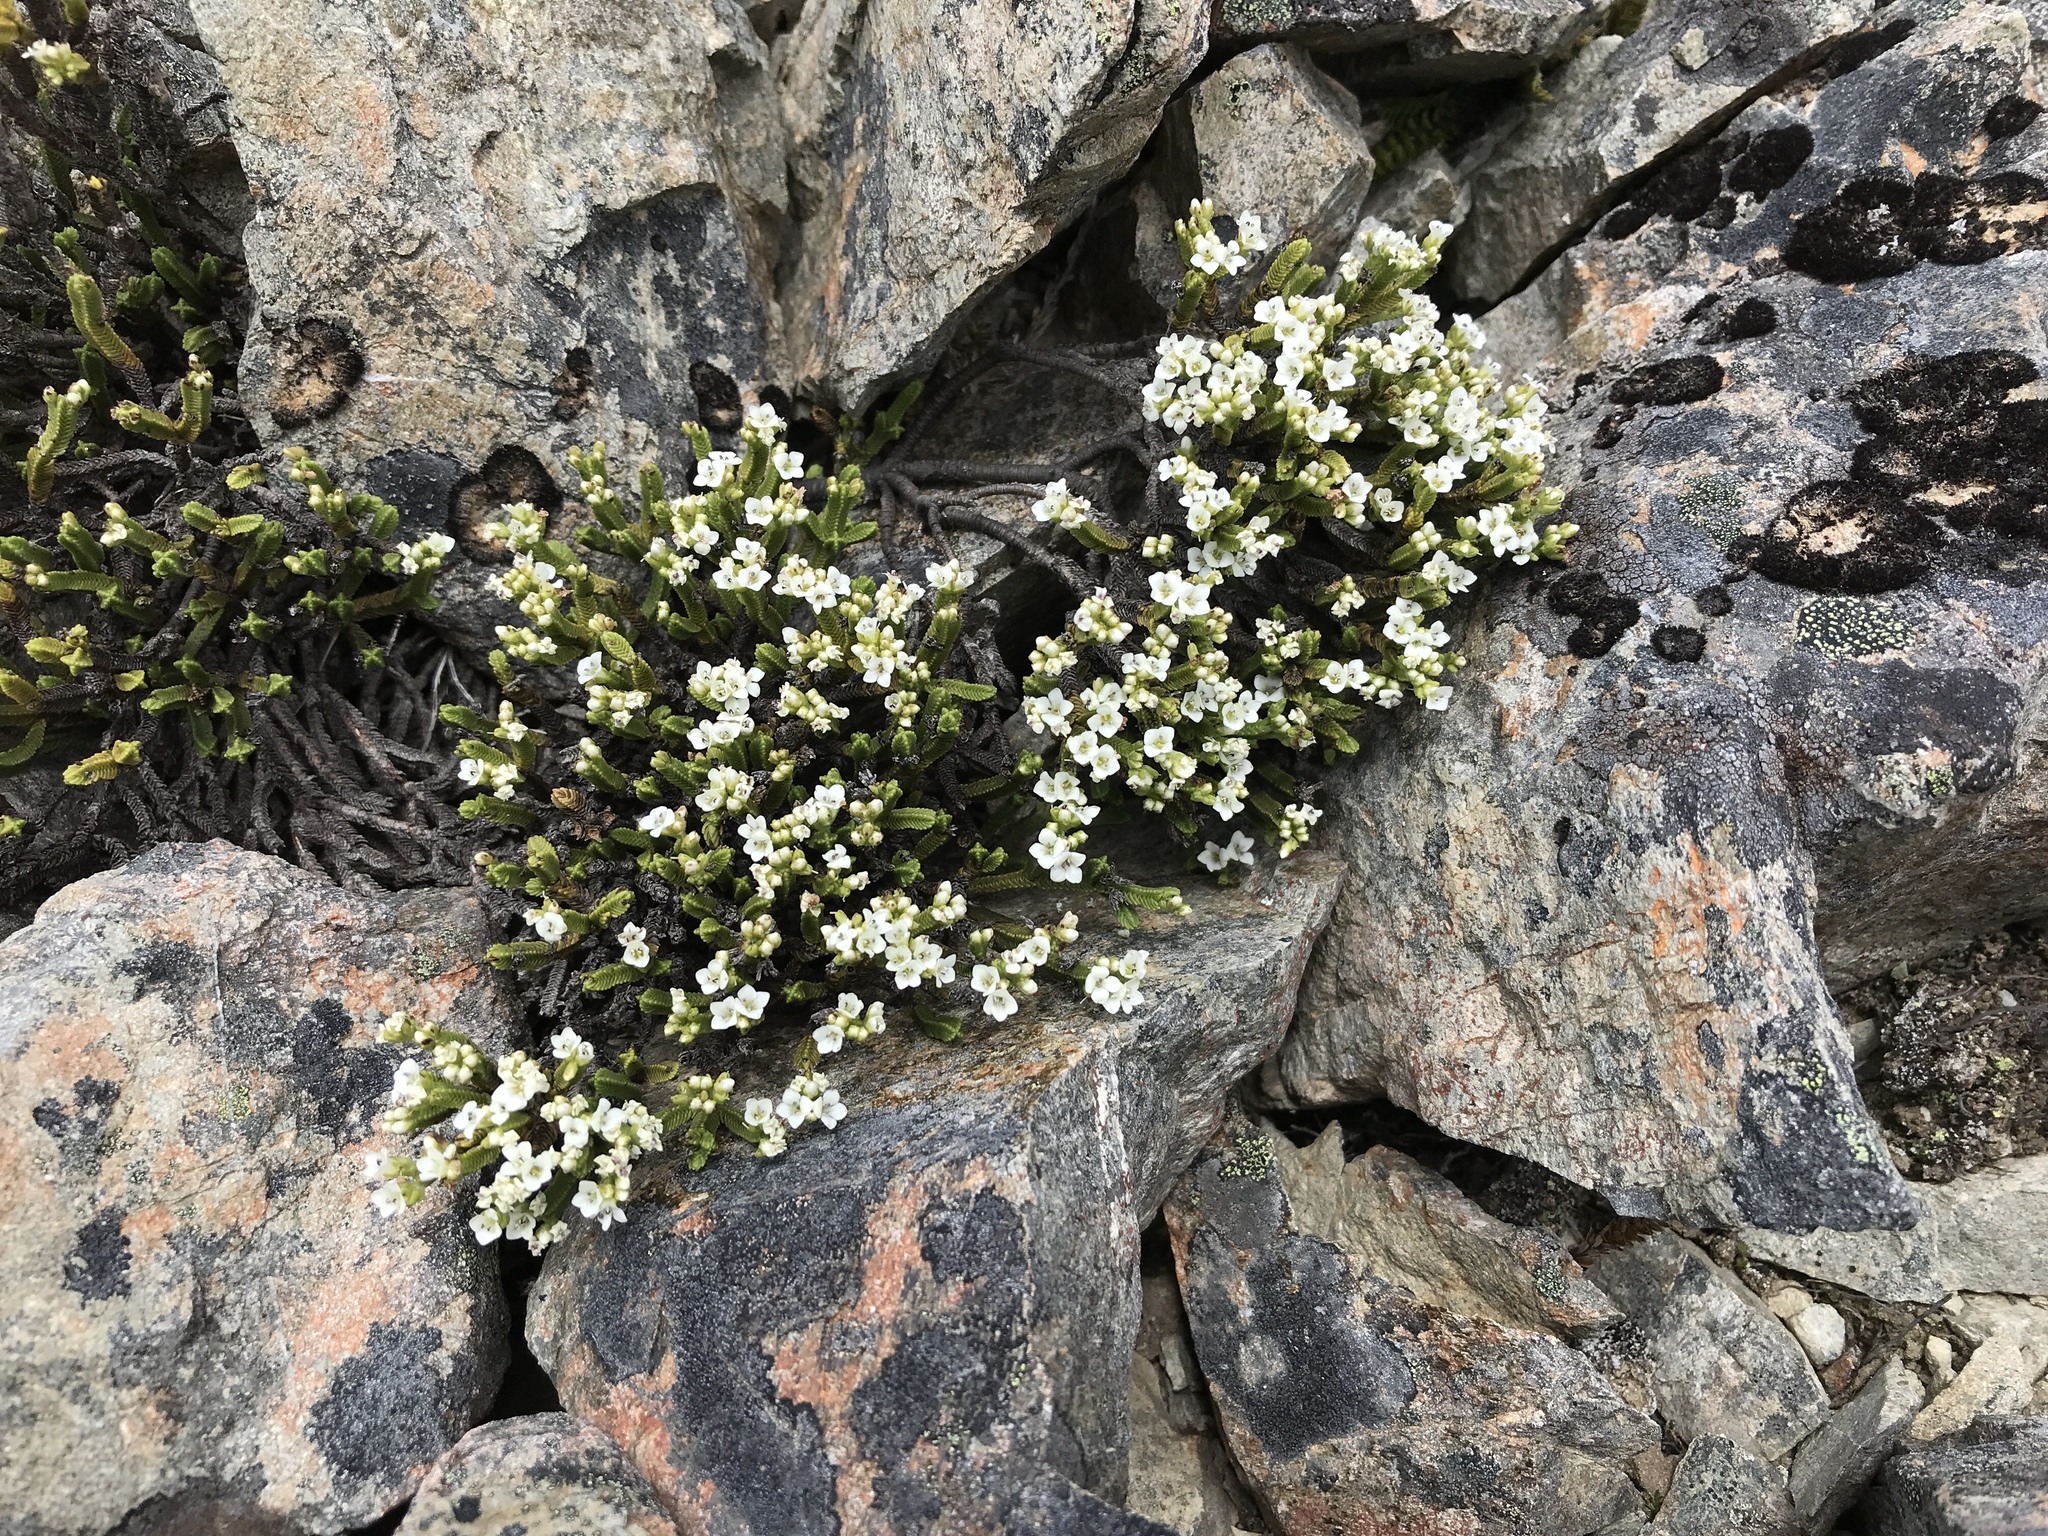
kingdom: Plantae
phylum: Tracheophyta
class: Magnoliopsida
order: Lamiales
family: Plantaginaceae
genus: Veronica
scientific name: Veronica tetrasticha
